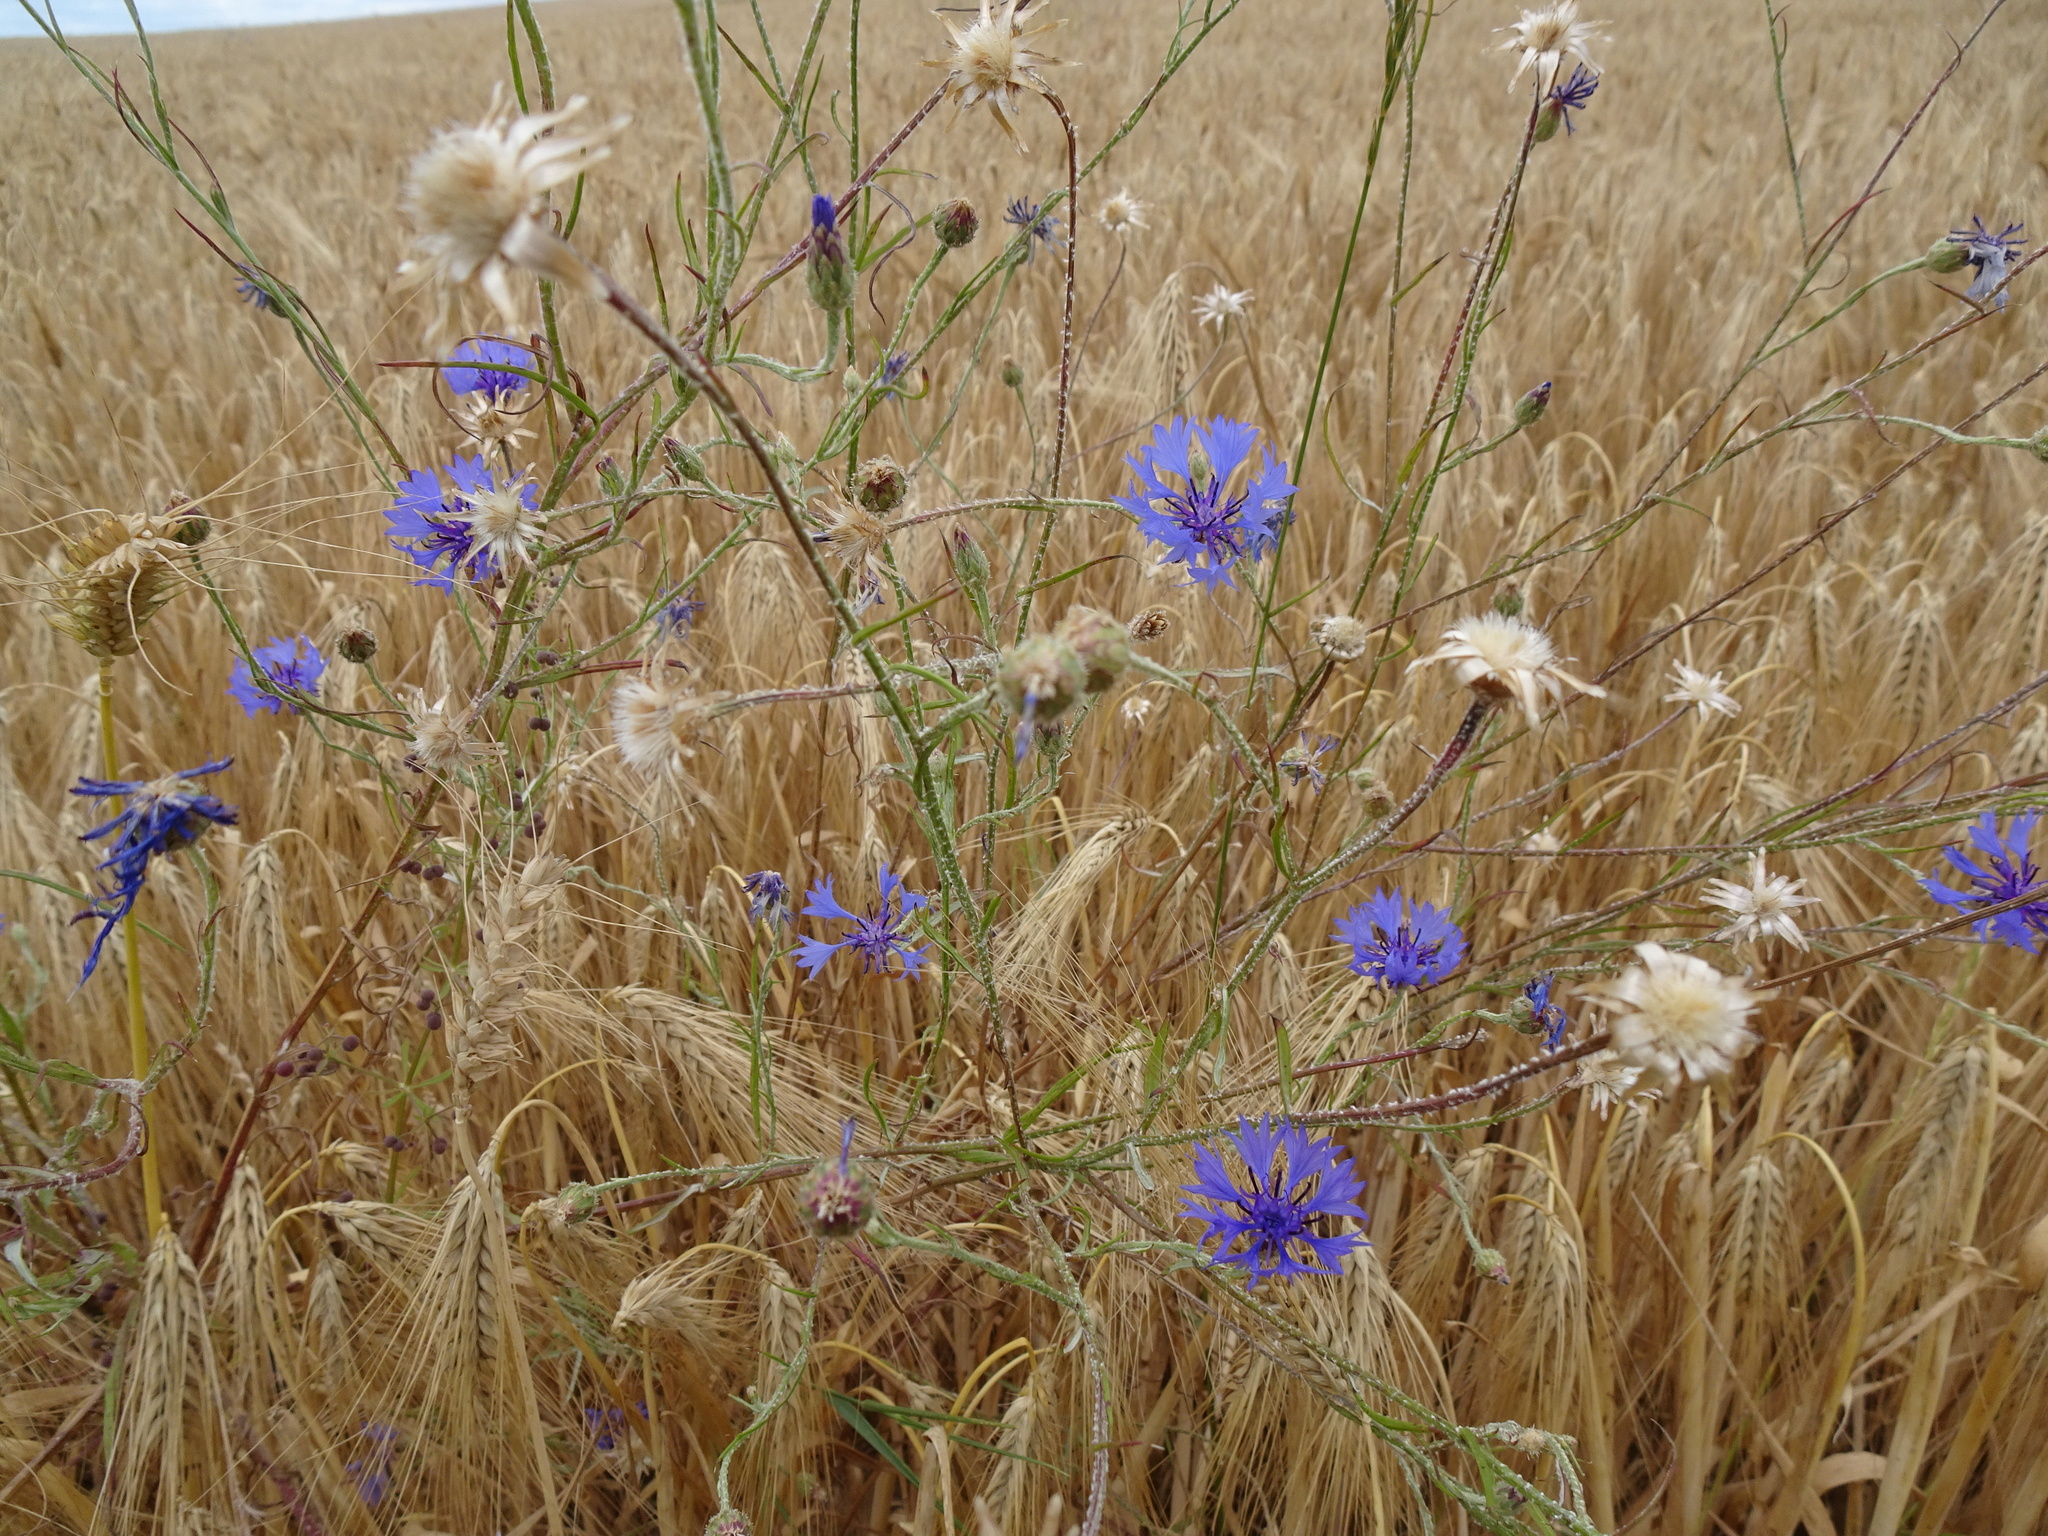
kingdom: Plantae
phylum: Tracheophyta
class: Magnoliopsida
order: Asterales
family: Asteraceae
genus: Centaurea
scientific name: Centaurea cyanus
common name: Cornflower
